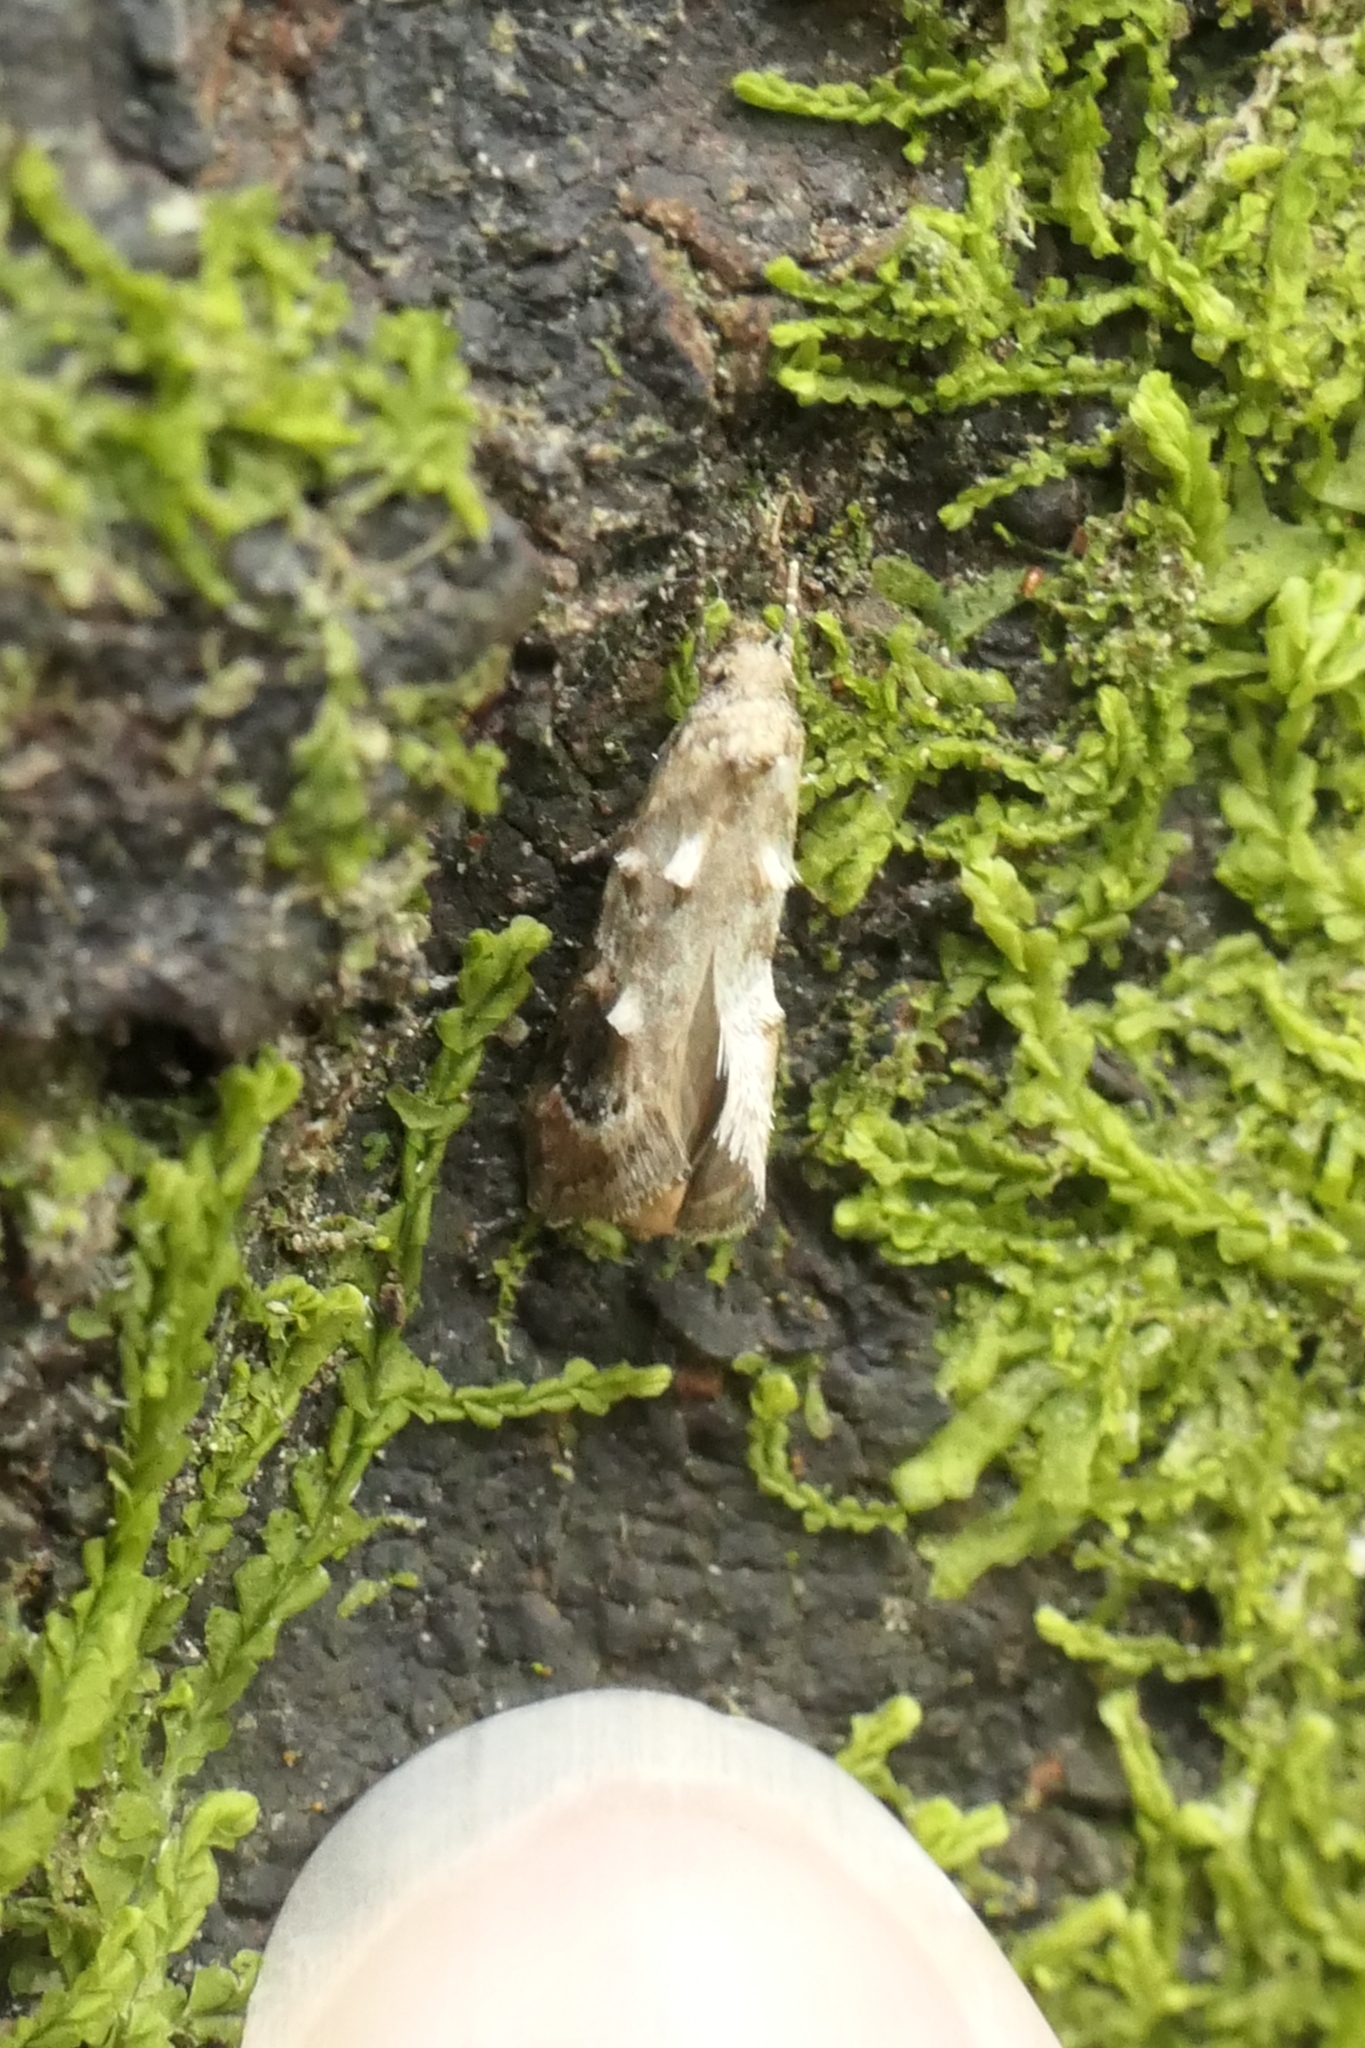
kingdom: Animalia
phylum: Arthropoda
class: Insecta
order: Lepidoptera
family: Oecophoridae
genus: Trachypepla
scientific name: Trachypepla aspidephora
